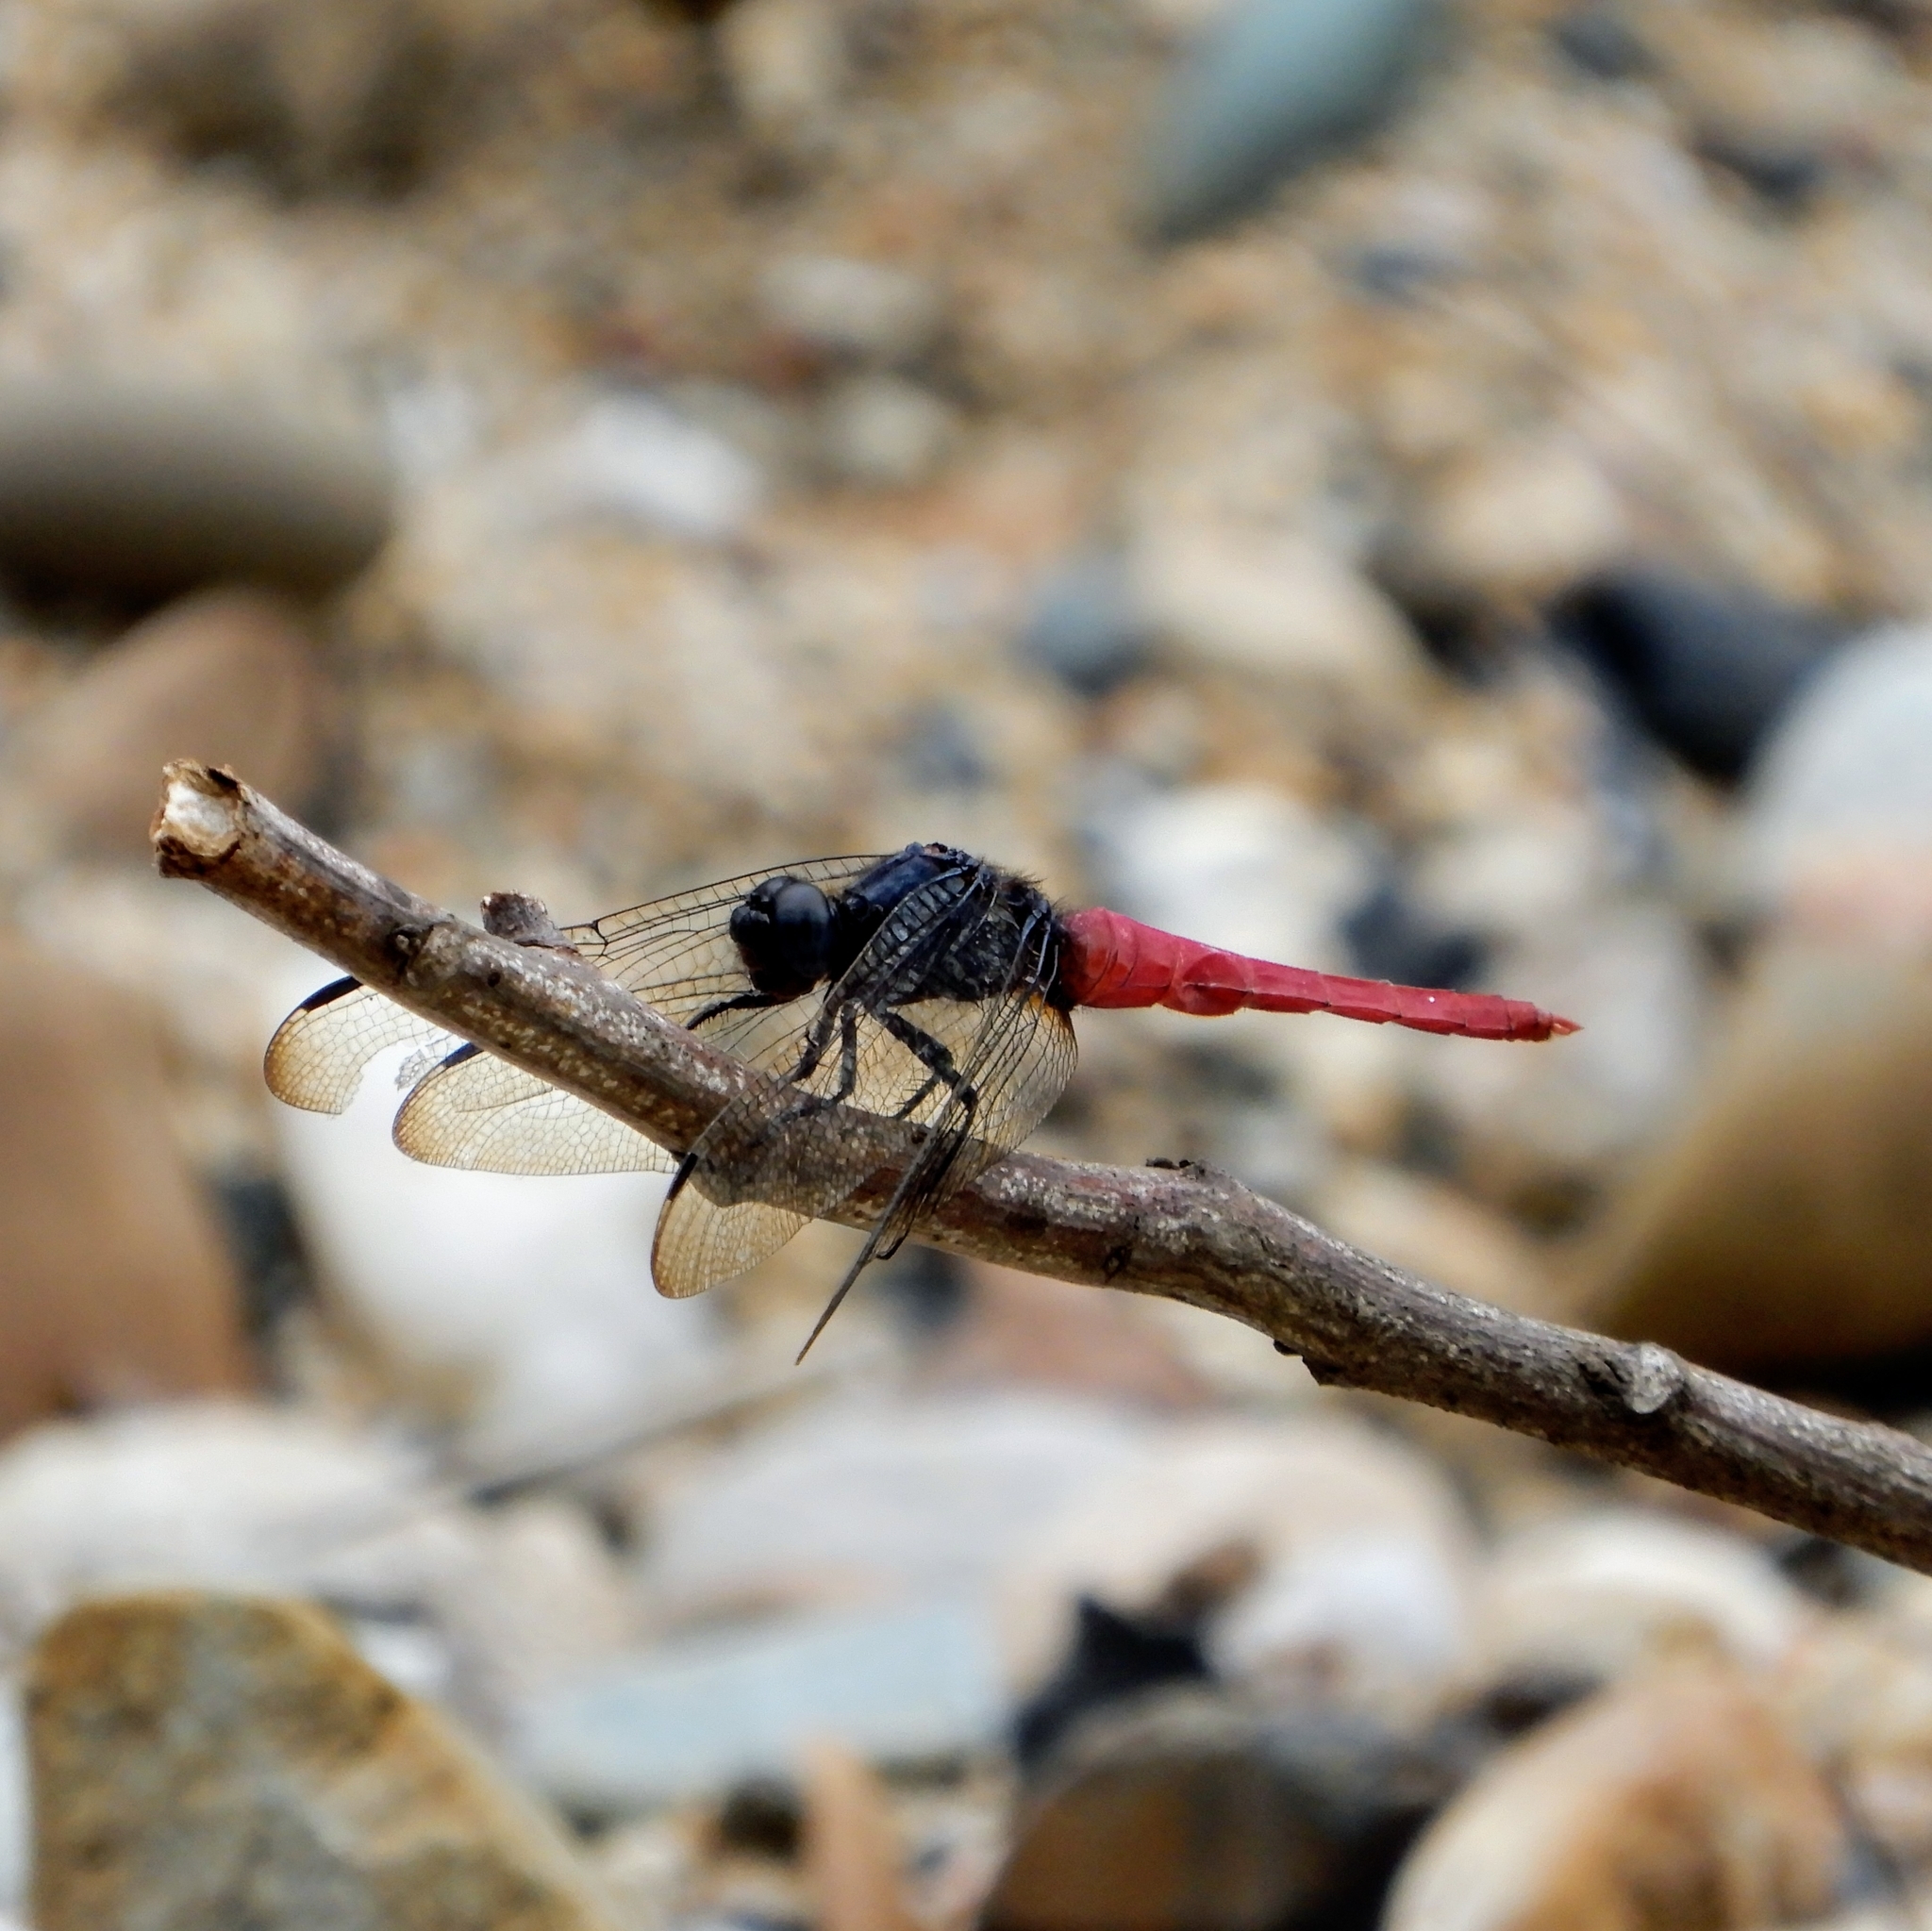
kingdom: Animalia
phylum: Arthropoda
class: Insecta
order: Odonata
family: Libellulidae
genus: Orthetrum
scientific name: Orthetrum pruinosum
